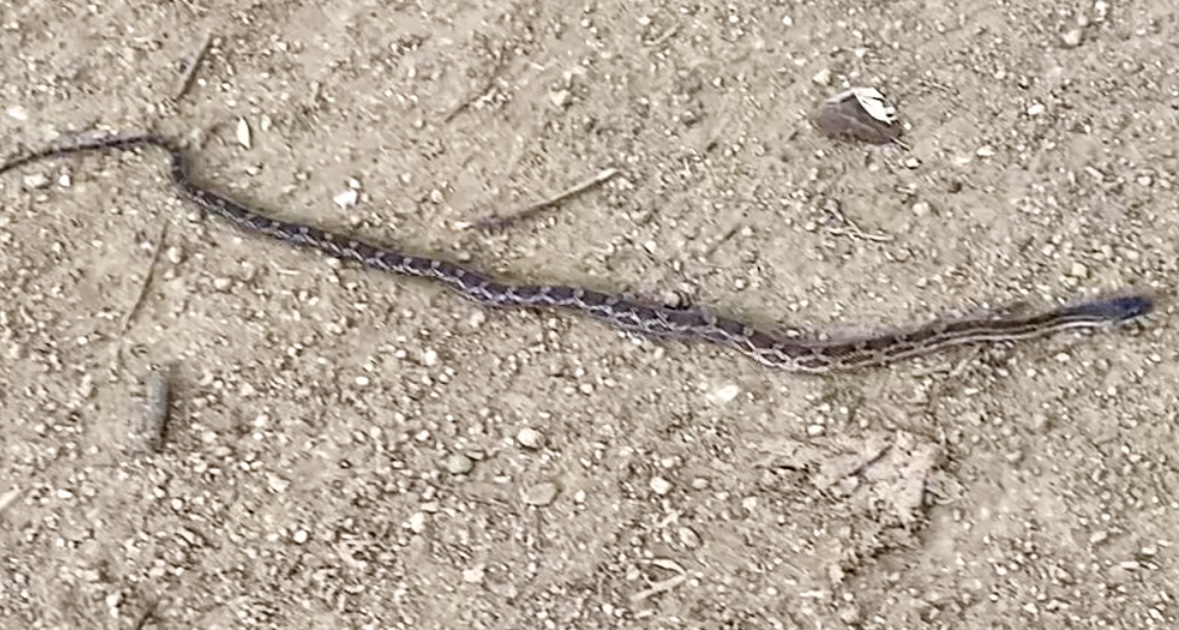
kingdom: Animalia
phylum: Chordata
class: Squamata
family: Colubridae
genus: Pantherophis
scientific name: Pantherophis obsoletus
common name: Black rat snake
